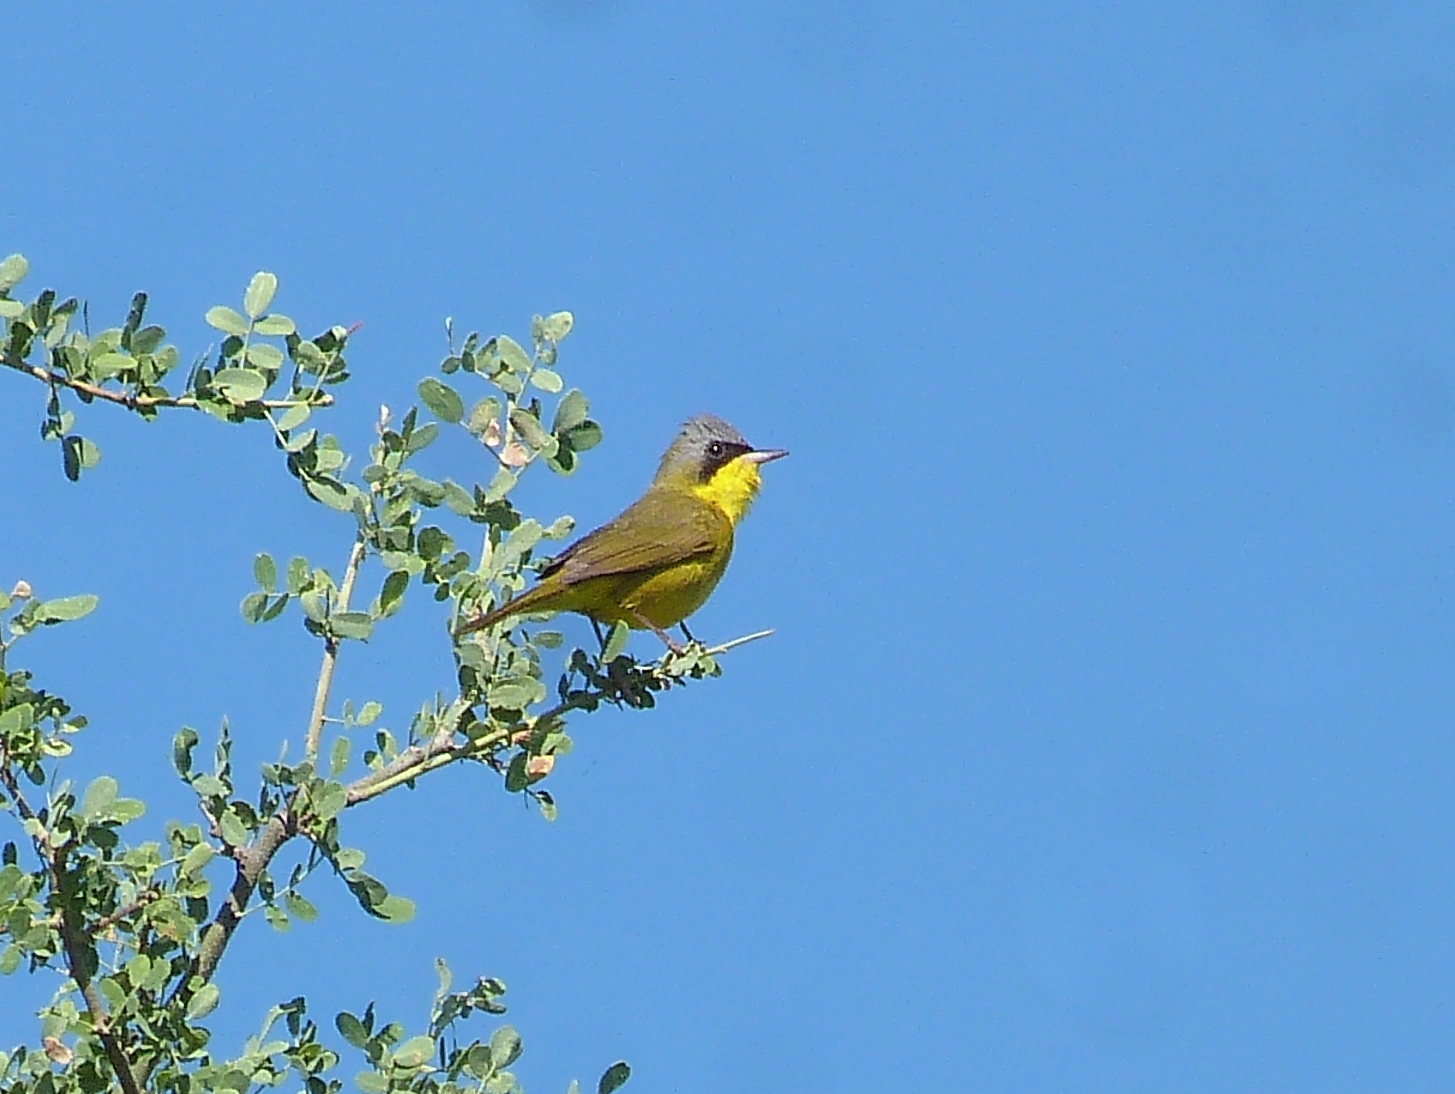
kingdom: Animalia
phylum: Chordata
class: Aves
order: Passeriformes
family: Parulidae
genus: Geothlypis
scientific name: Geothlypis velata
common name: Southern yellowthroat
